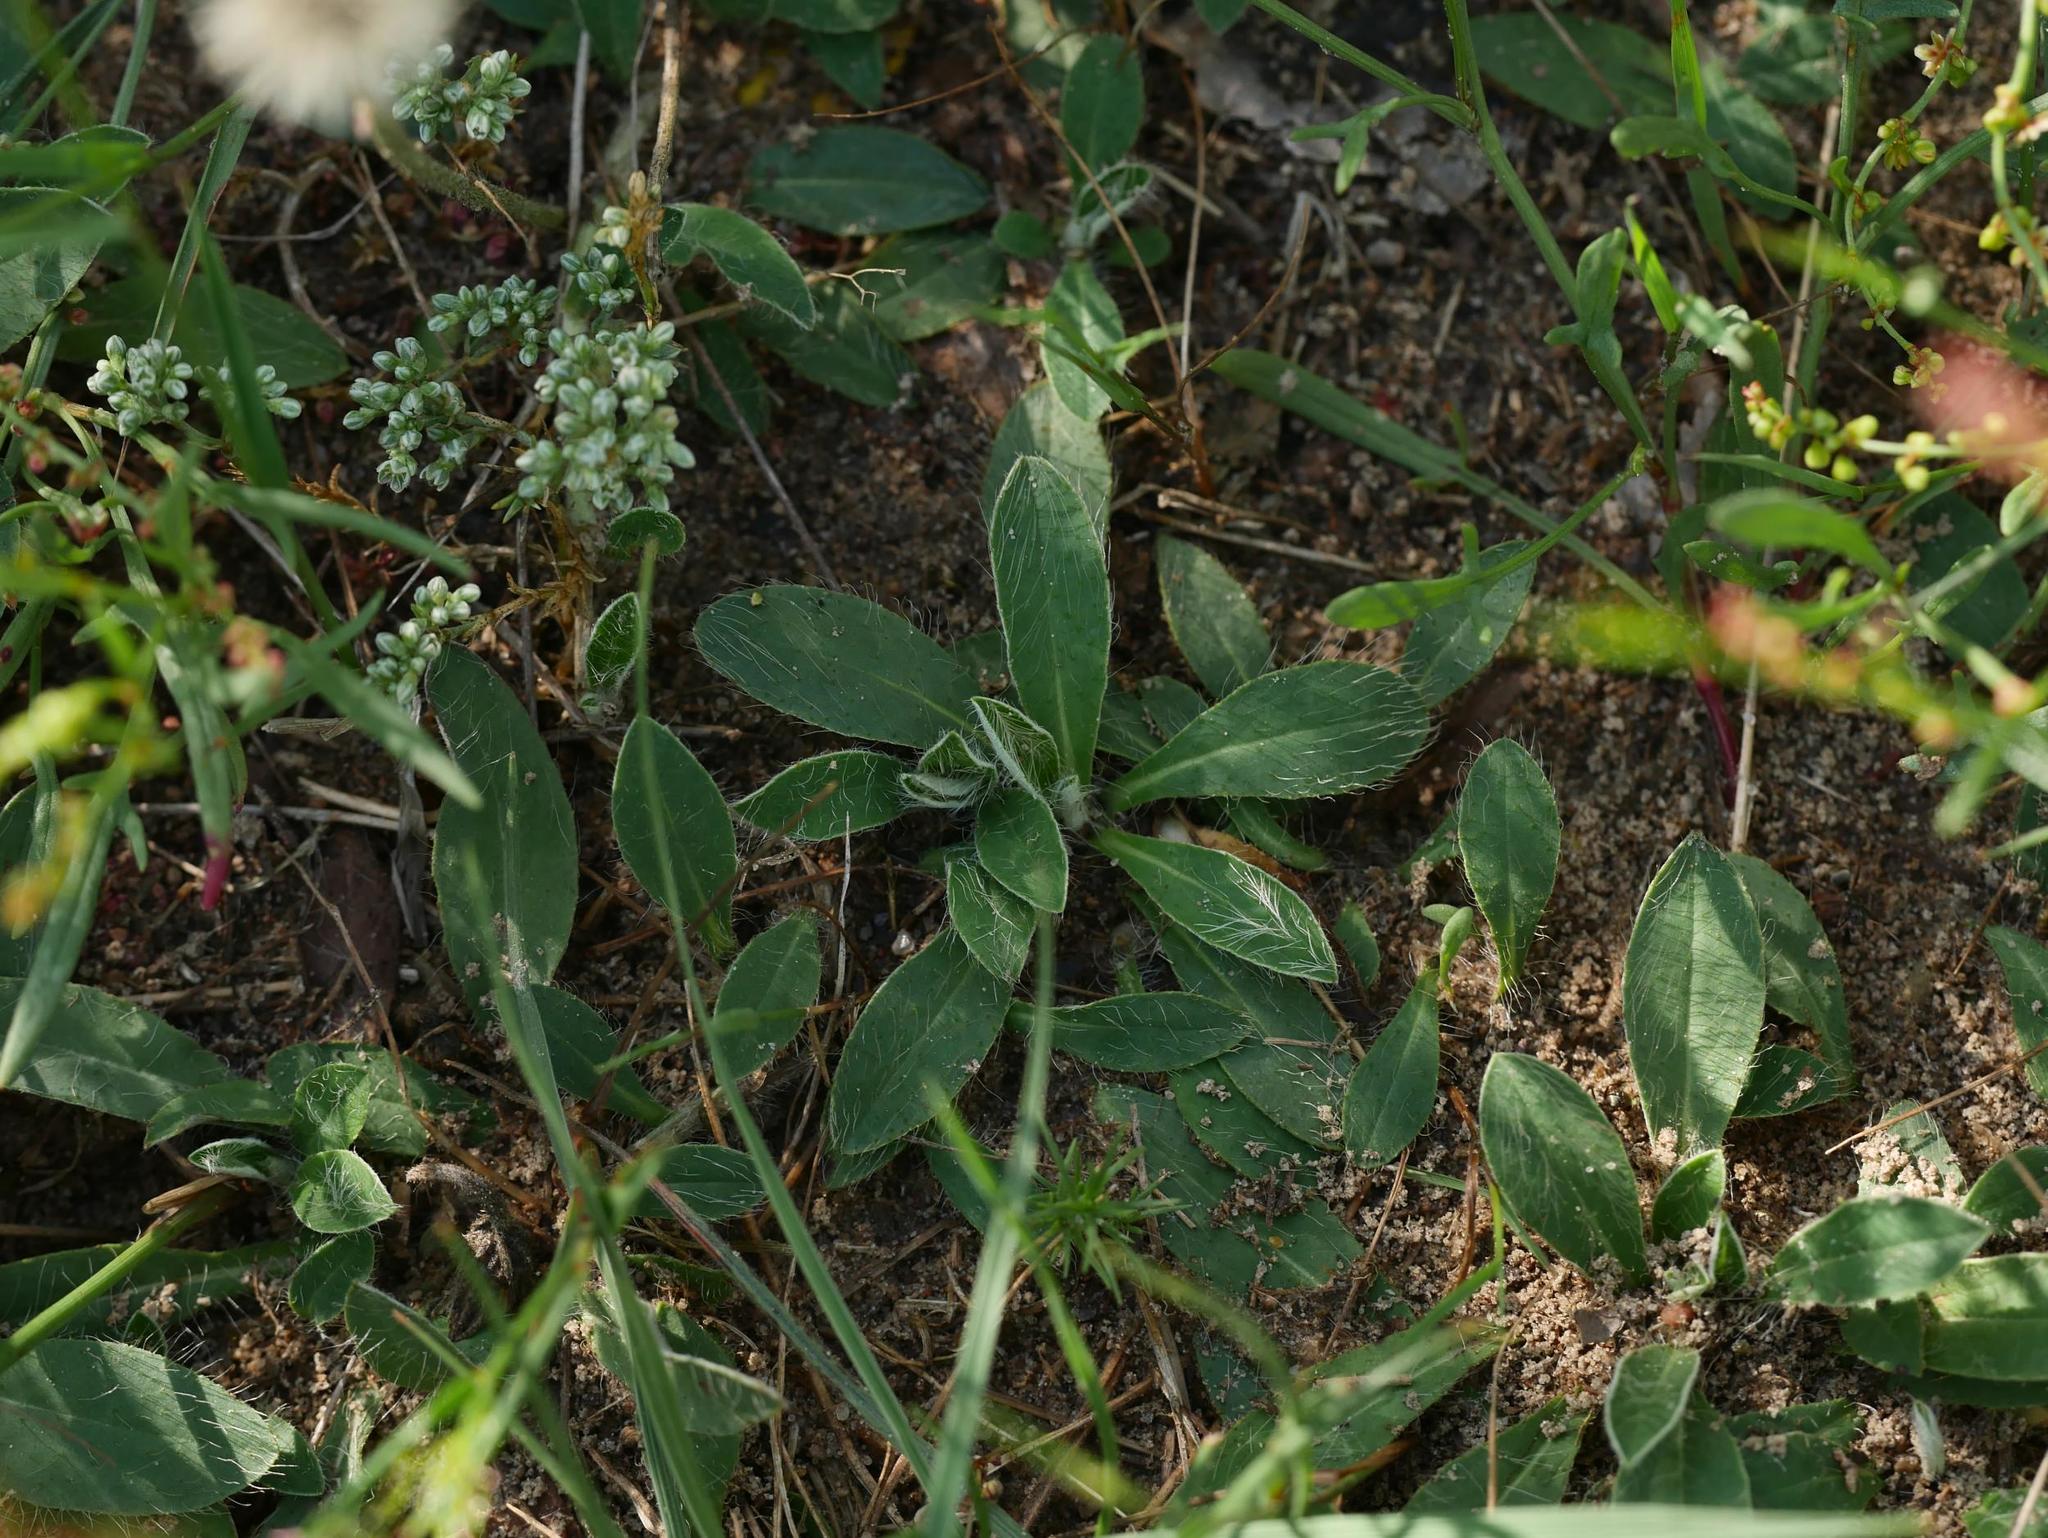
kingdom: Plantae
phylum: Tracheophyta
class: Magnoliopsida
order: Caryophyllales
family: Caryophyllaceae
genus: Scleranthus
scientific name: Scleranthus annuus
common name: Annual knawel
